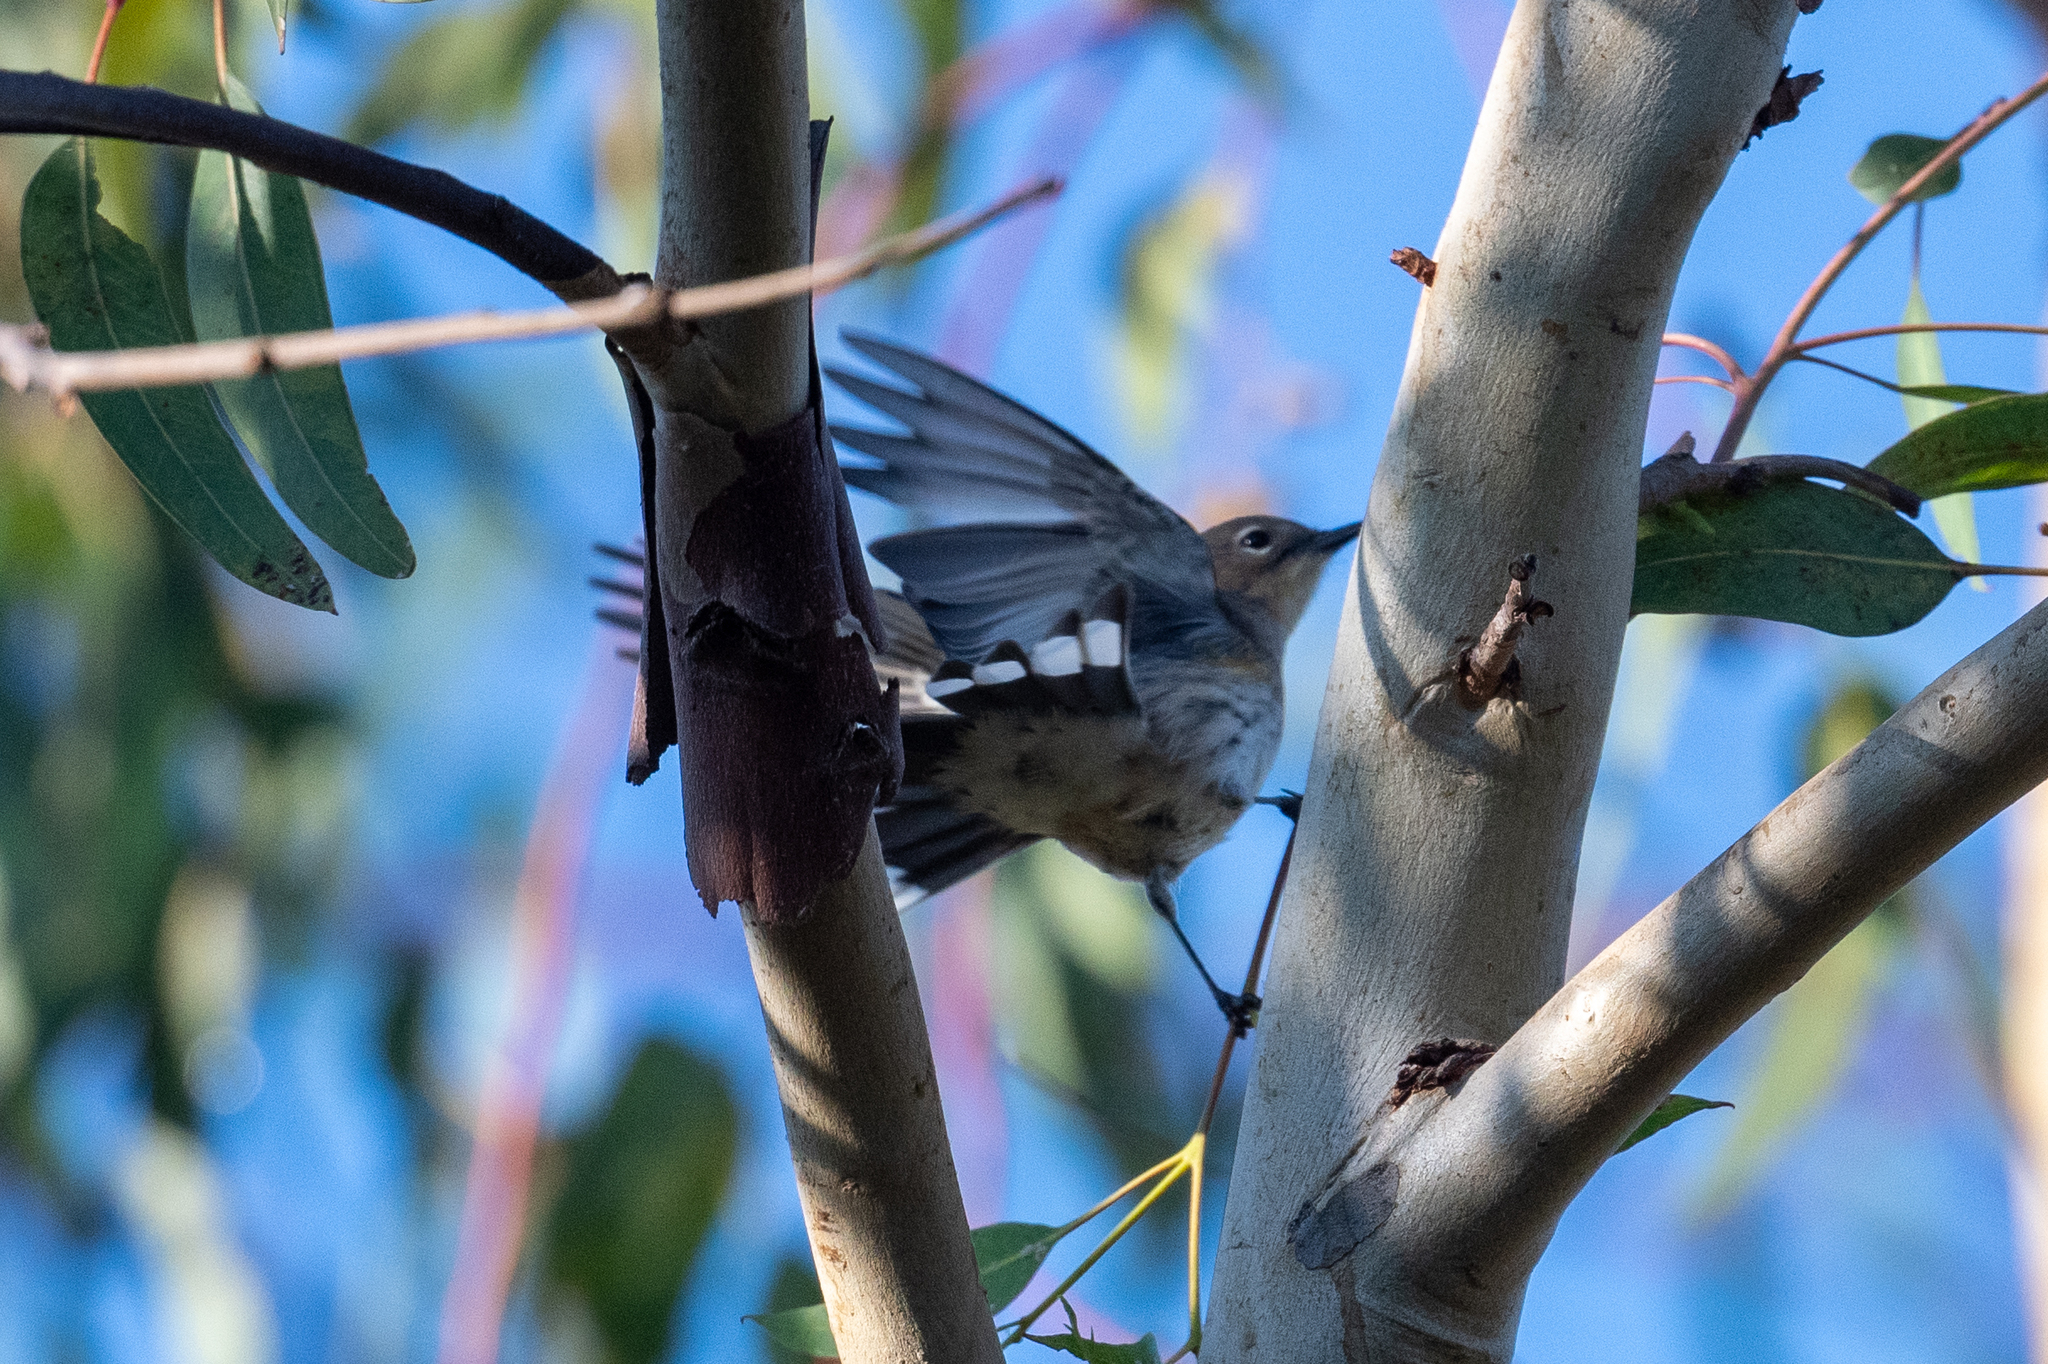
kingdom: Animalia
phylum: Chordata
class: Aves
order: Passeriformes
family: Parulidae
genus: Setophaga
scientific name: Setophaga coronata
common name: Myrtle warbler
